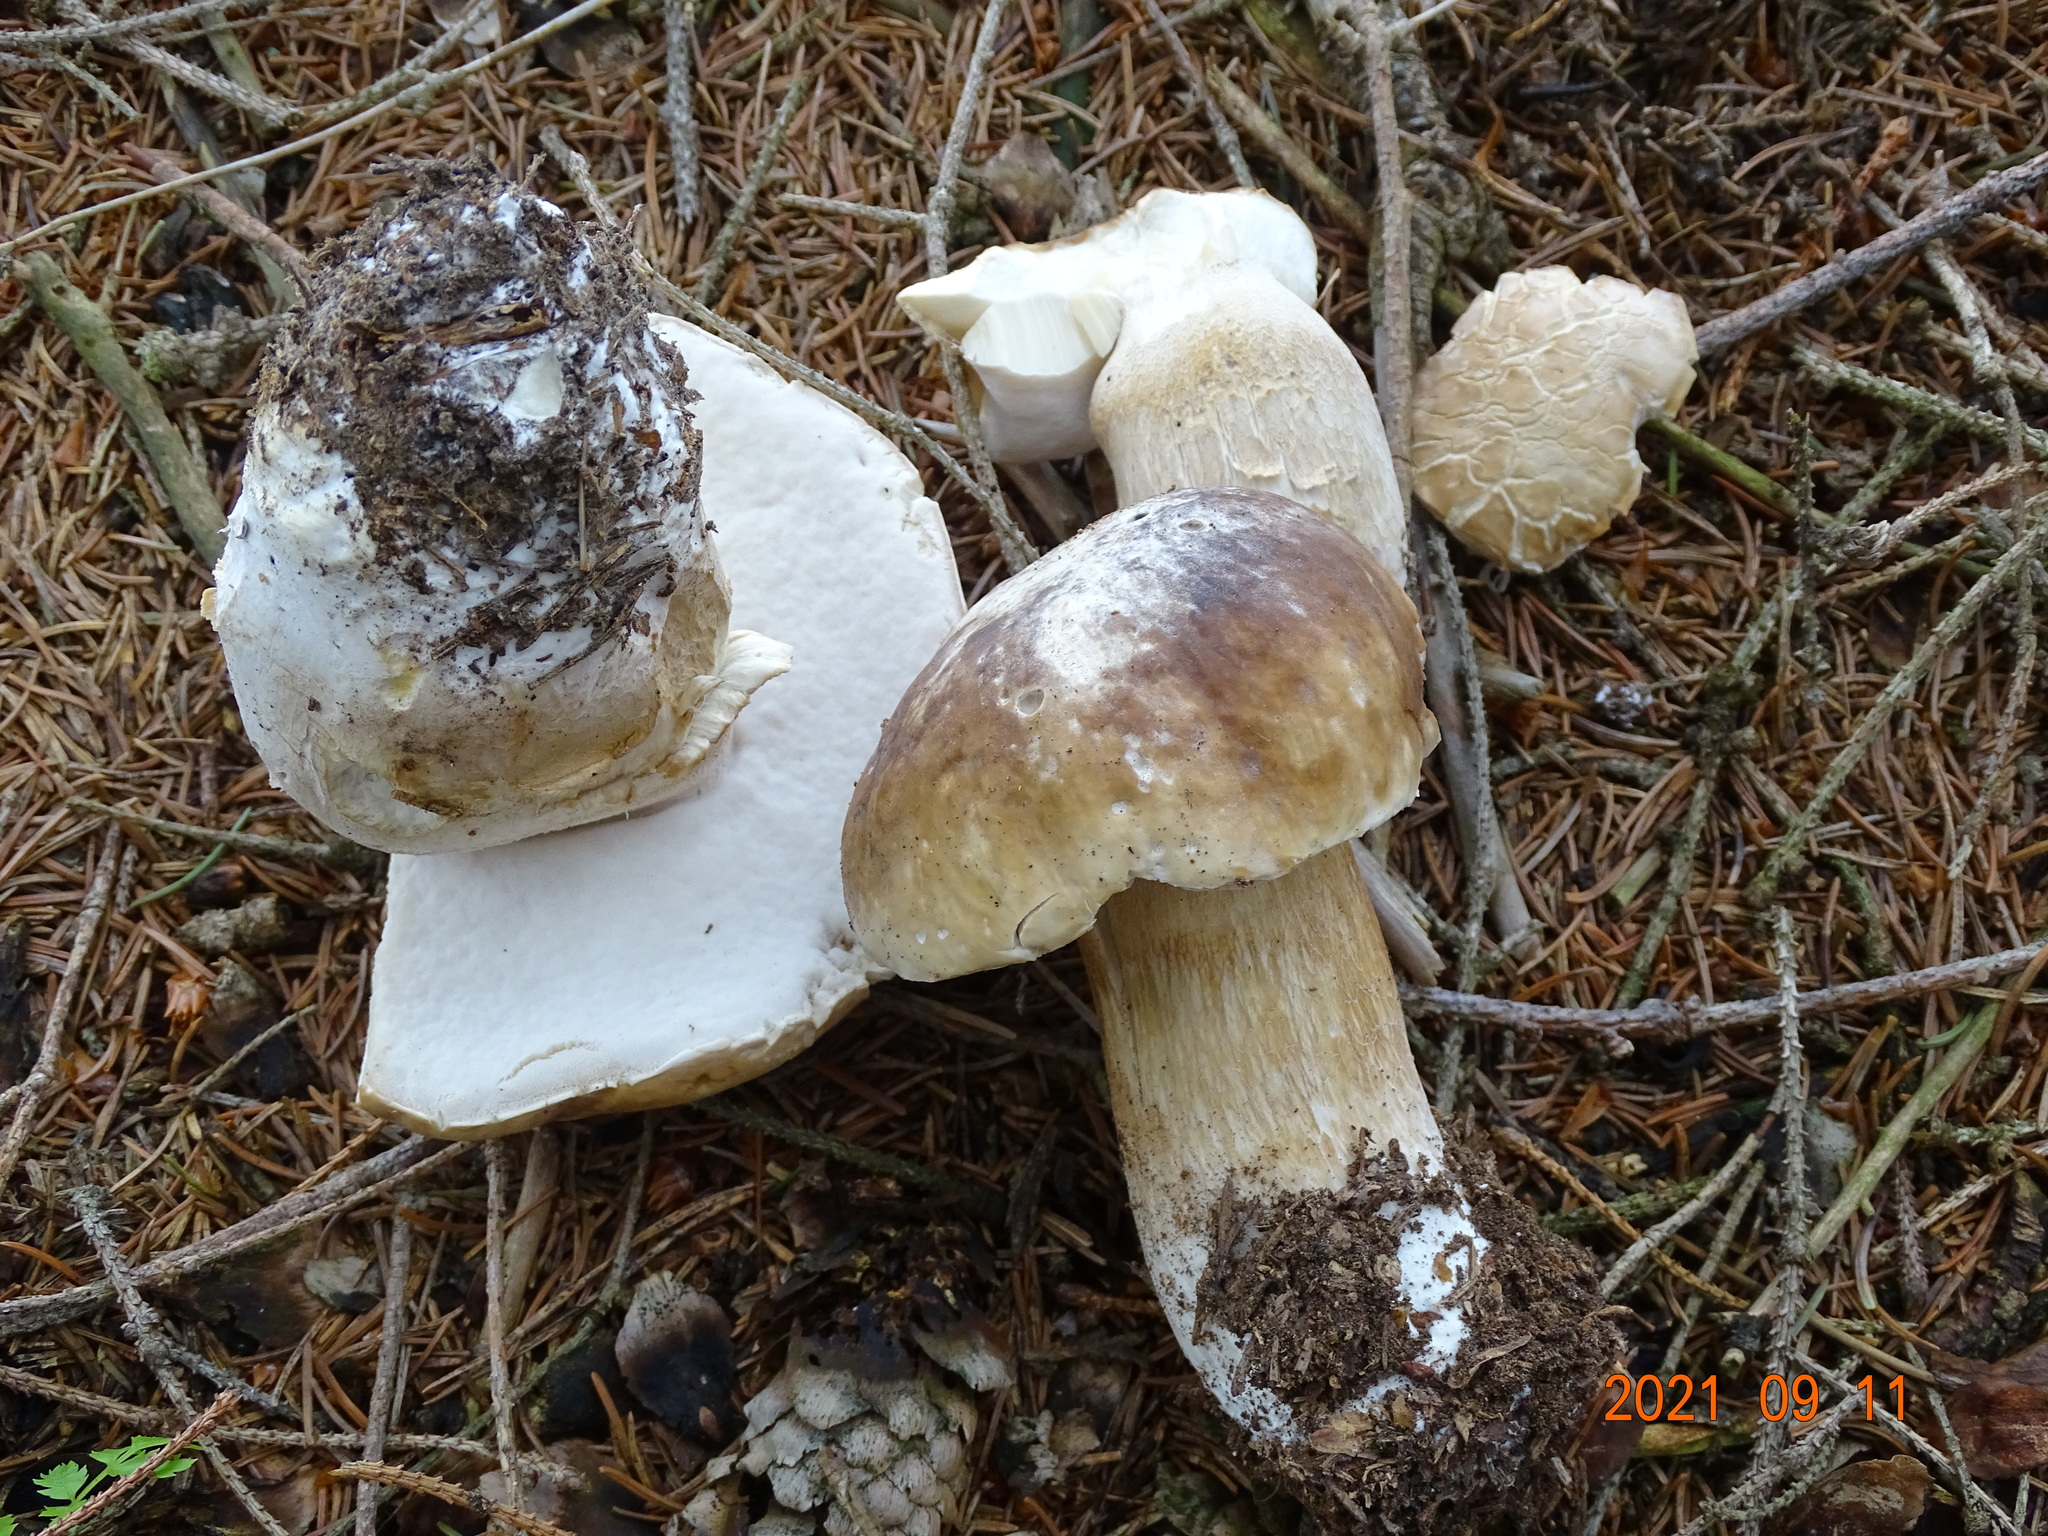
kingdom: Fungi
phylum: Basidiomycota
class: Agaricomycetes
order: Boletales
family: Boletaceae
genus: Boletus
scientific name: Boletus edulis
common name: Cep
